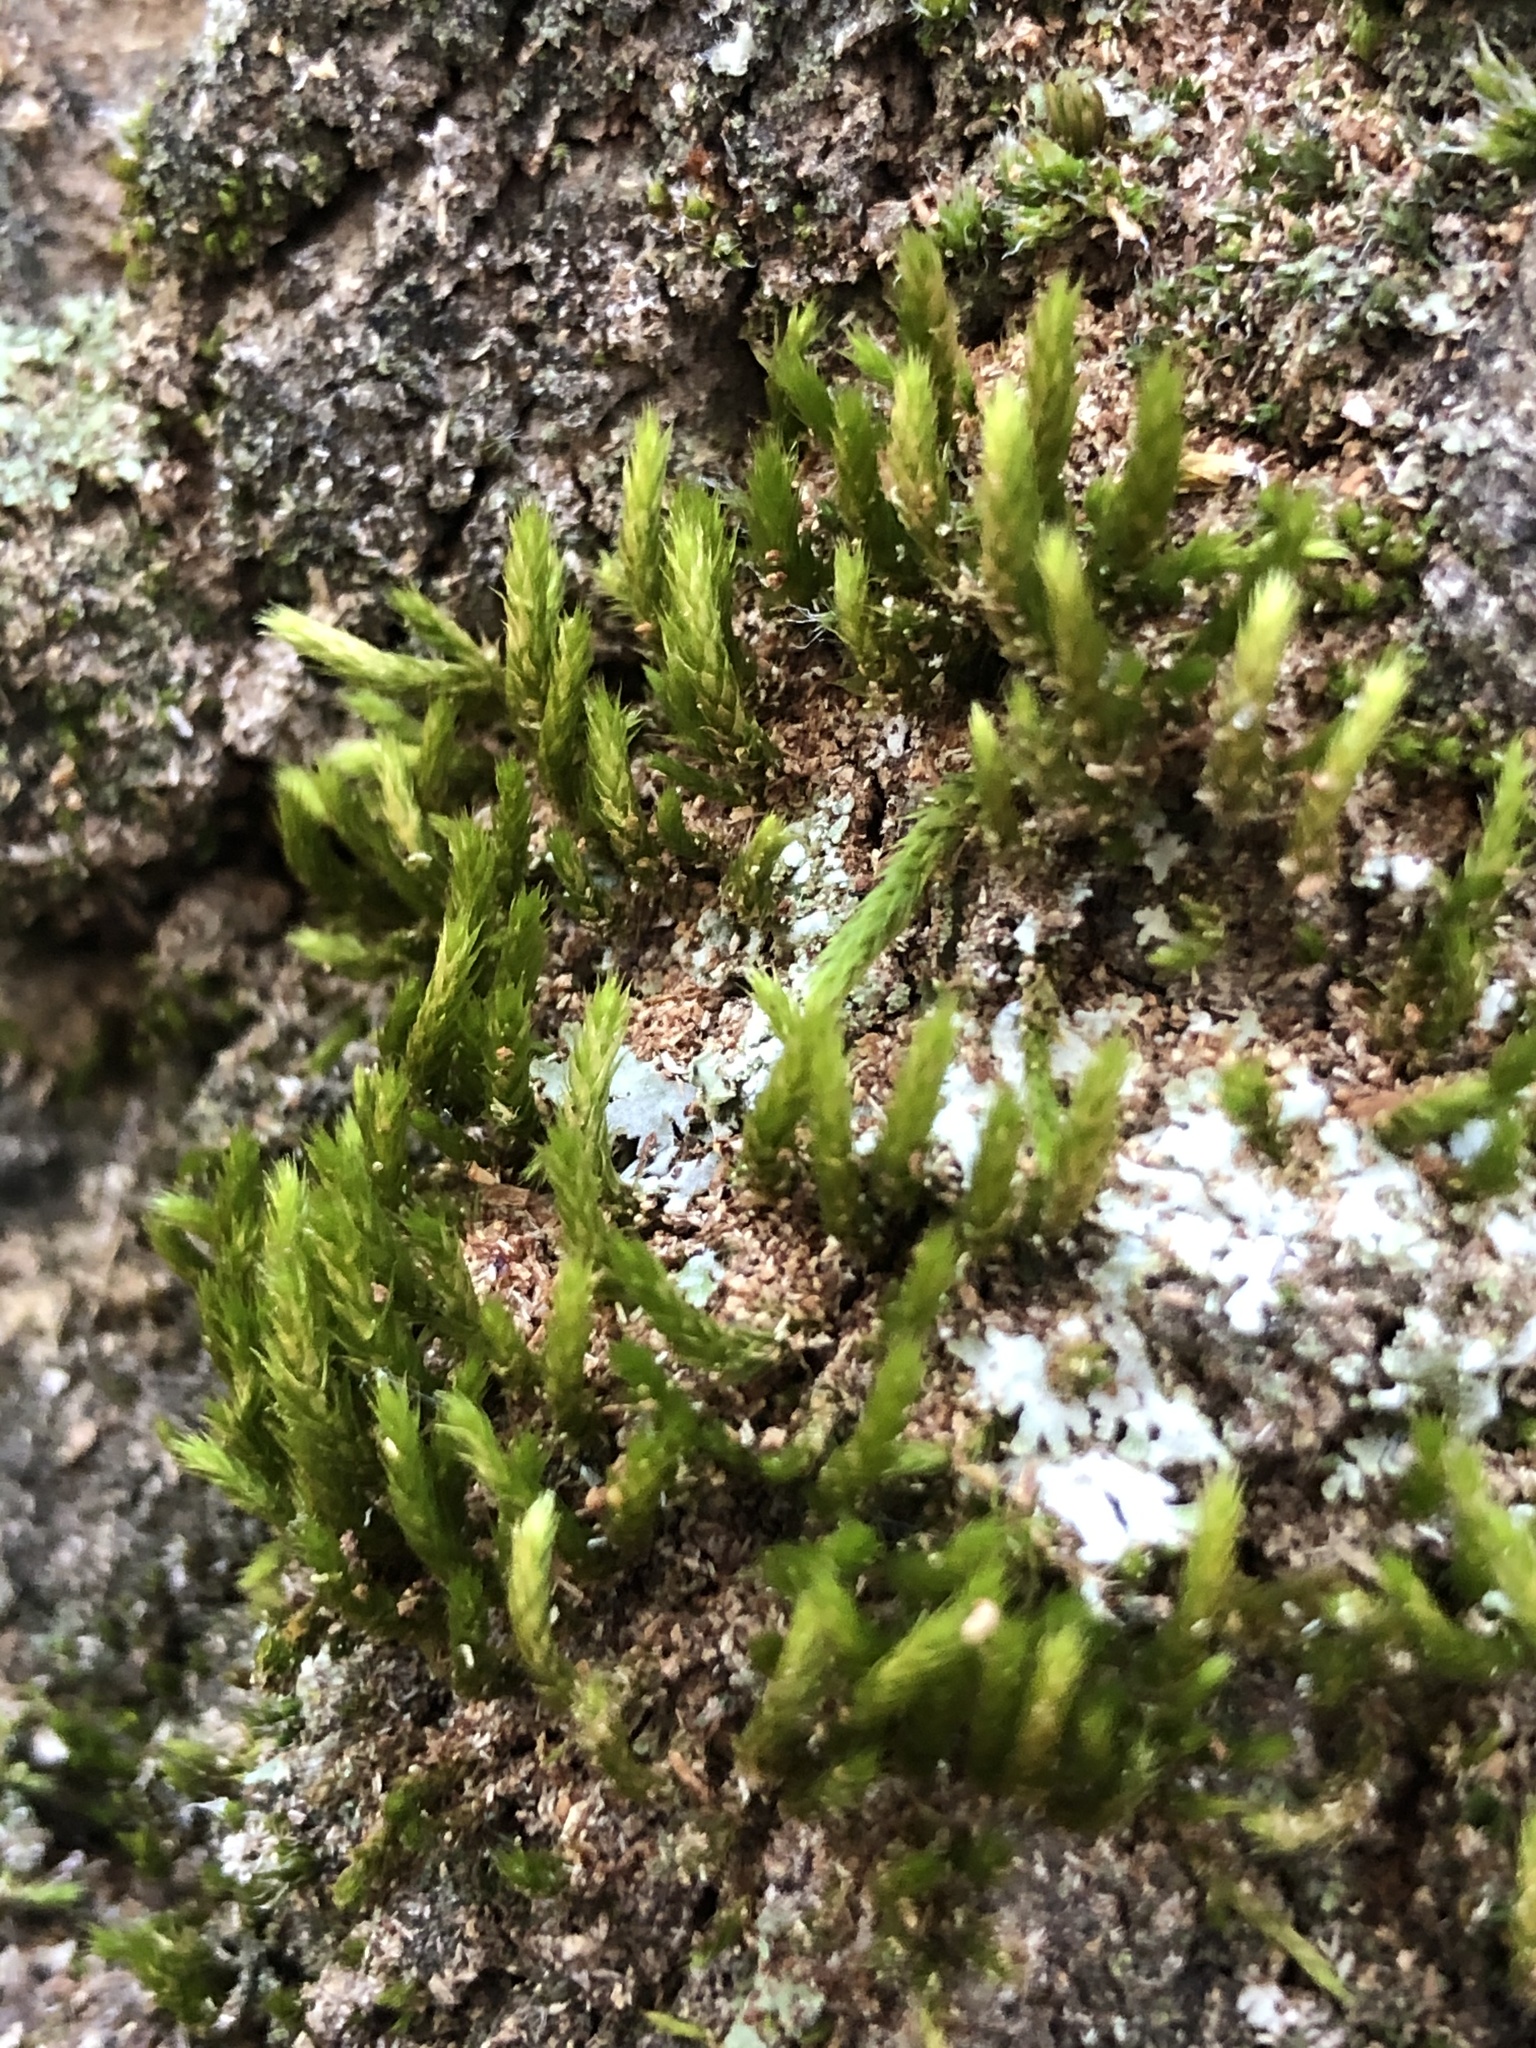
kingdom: Plantae
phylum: Bryophyta
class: Bryopsida
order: Hypnales
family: Leucodontaceae
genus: Leucodon
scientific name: Leucodon sciuroides
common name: Squirrel-tail moss
